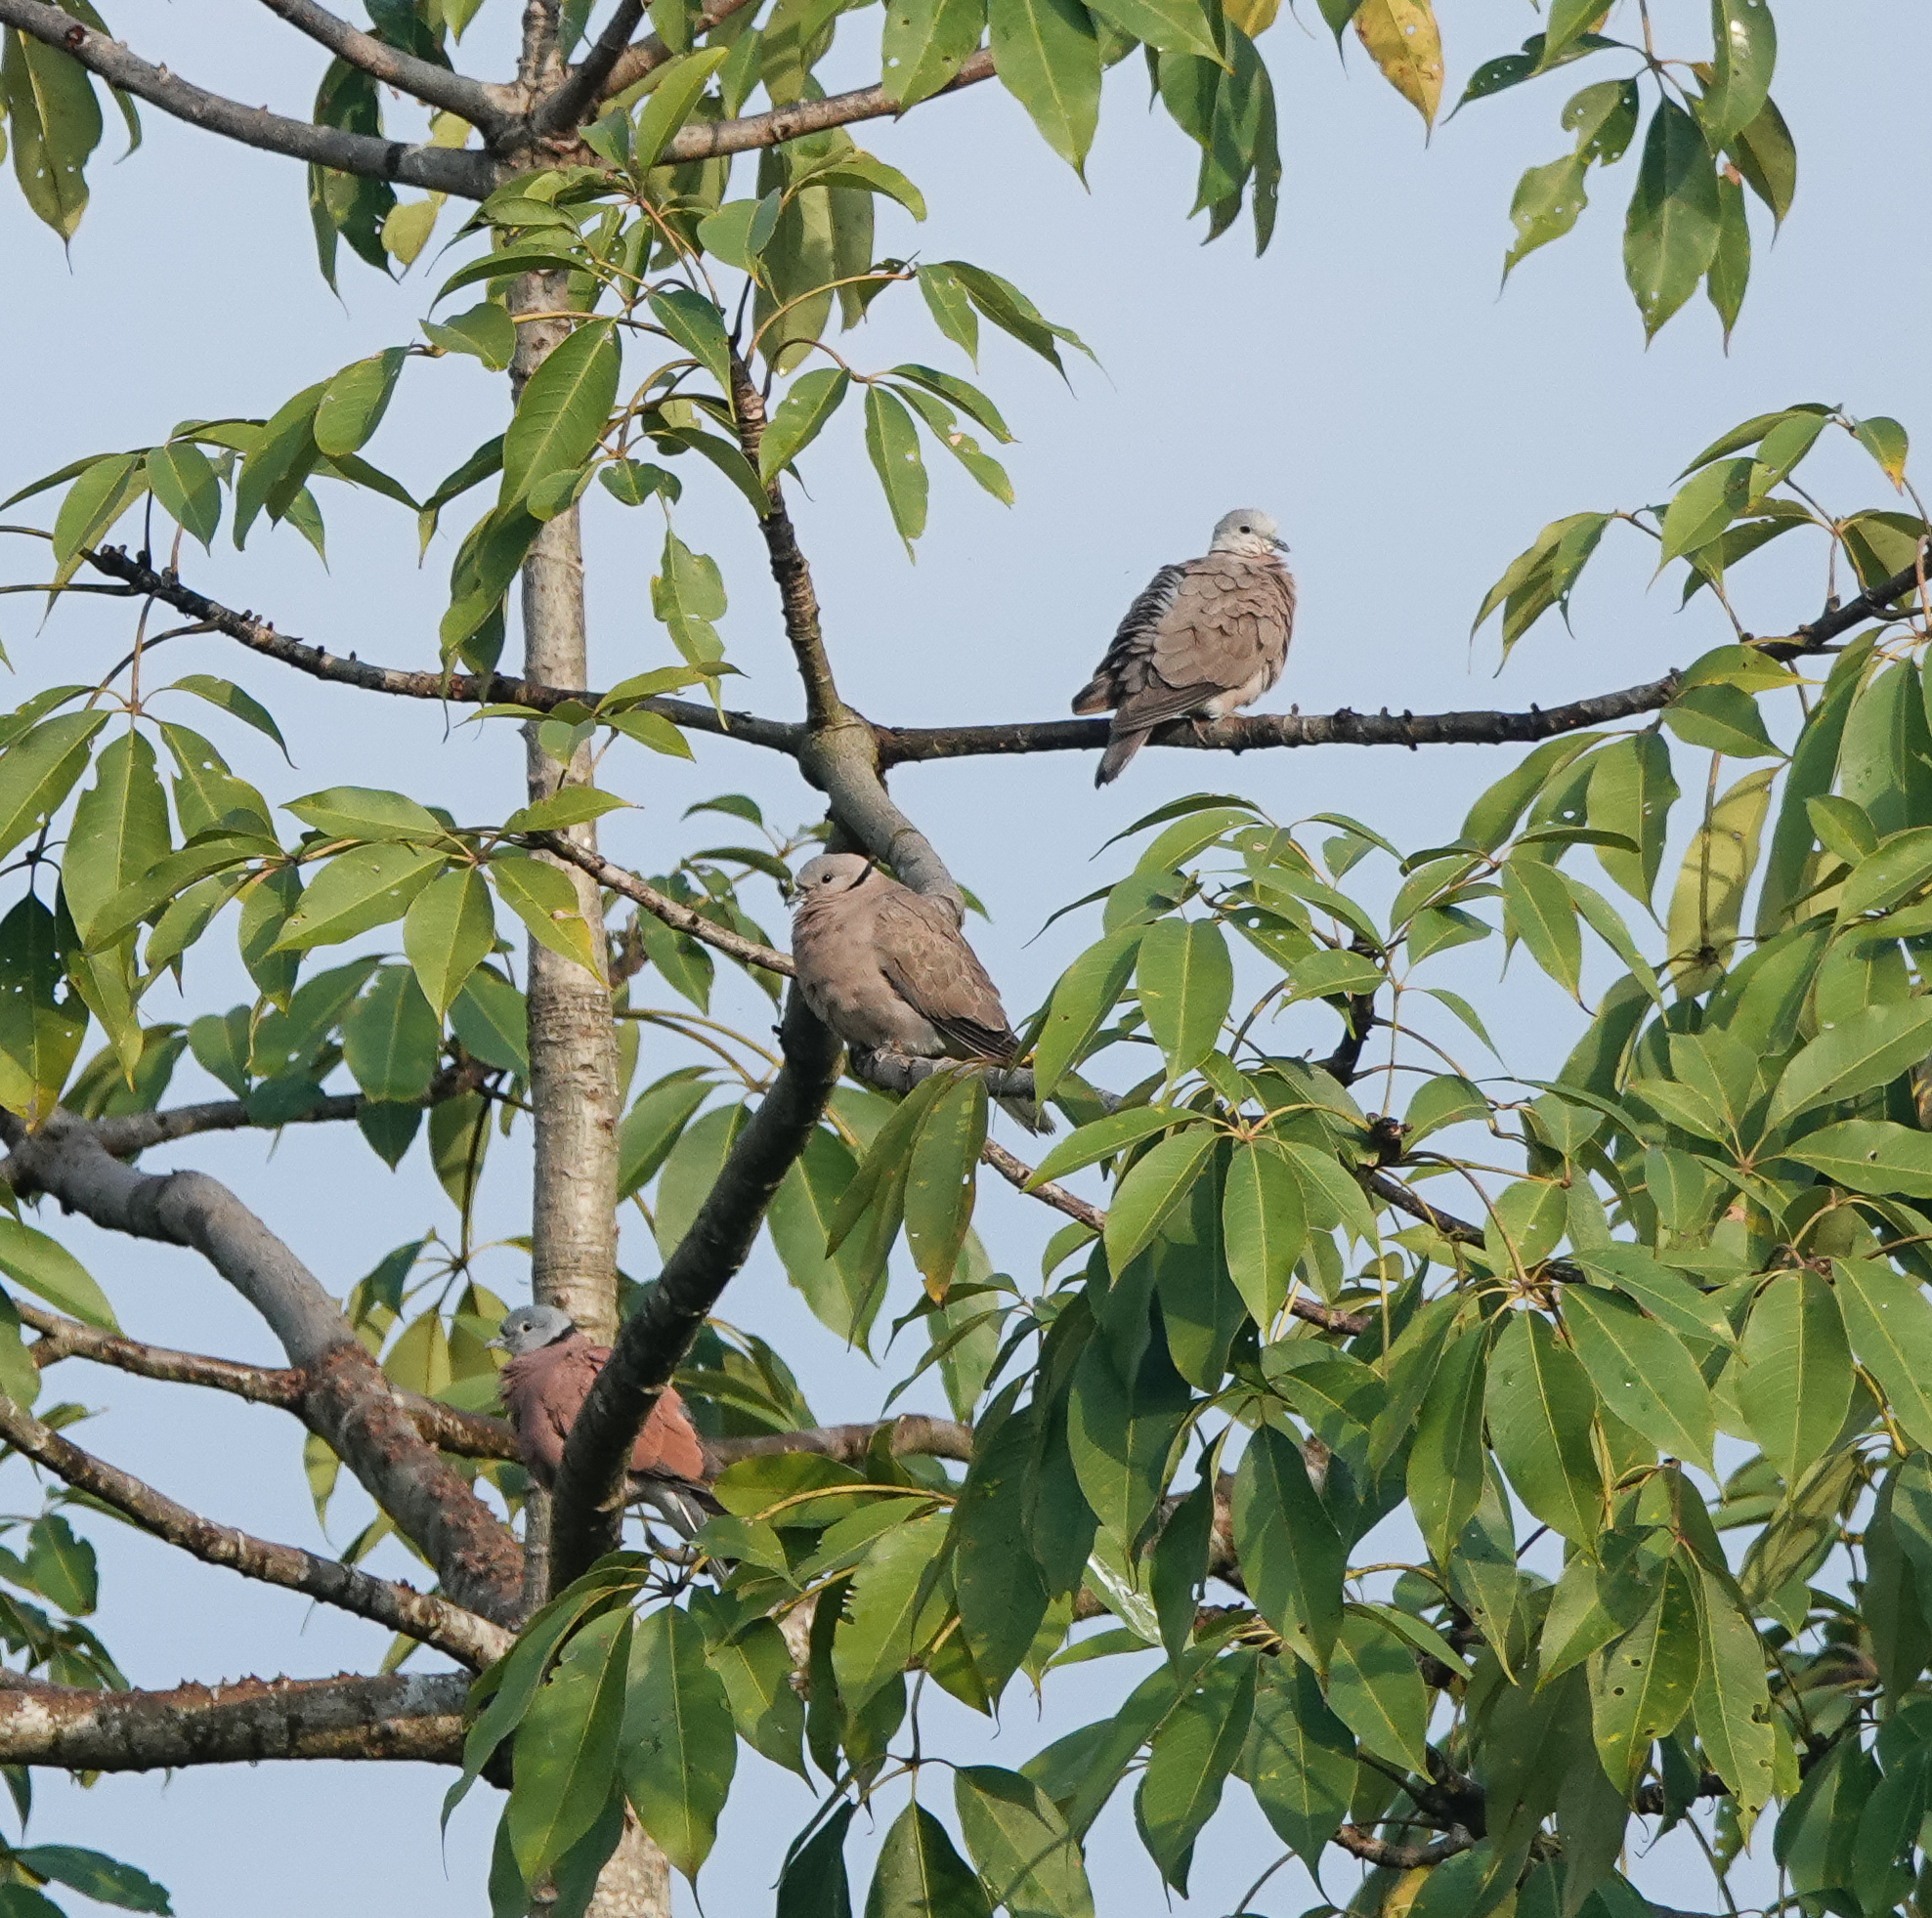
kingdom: Animalia
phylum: Chordata
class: Aves
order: Columbiformes
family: Columbidae
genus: Streptopelia
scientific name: Streptopelia tranquebarica
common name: Red turtle dove
